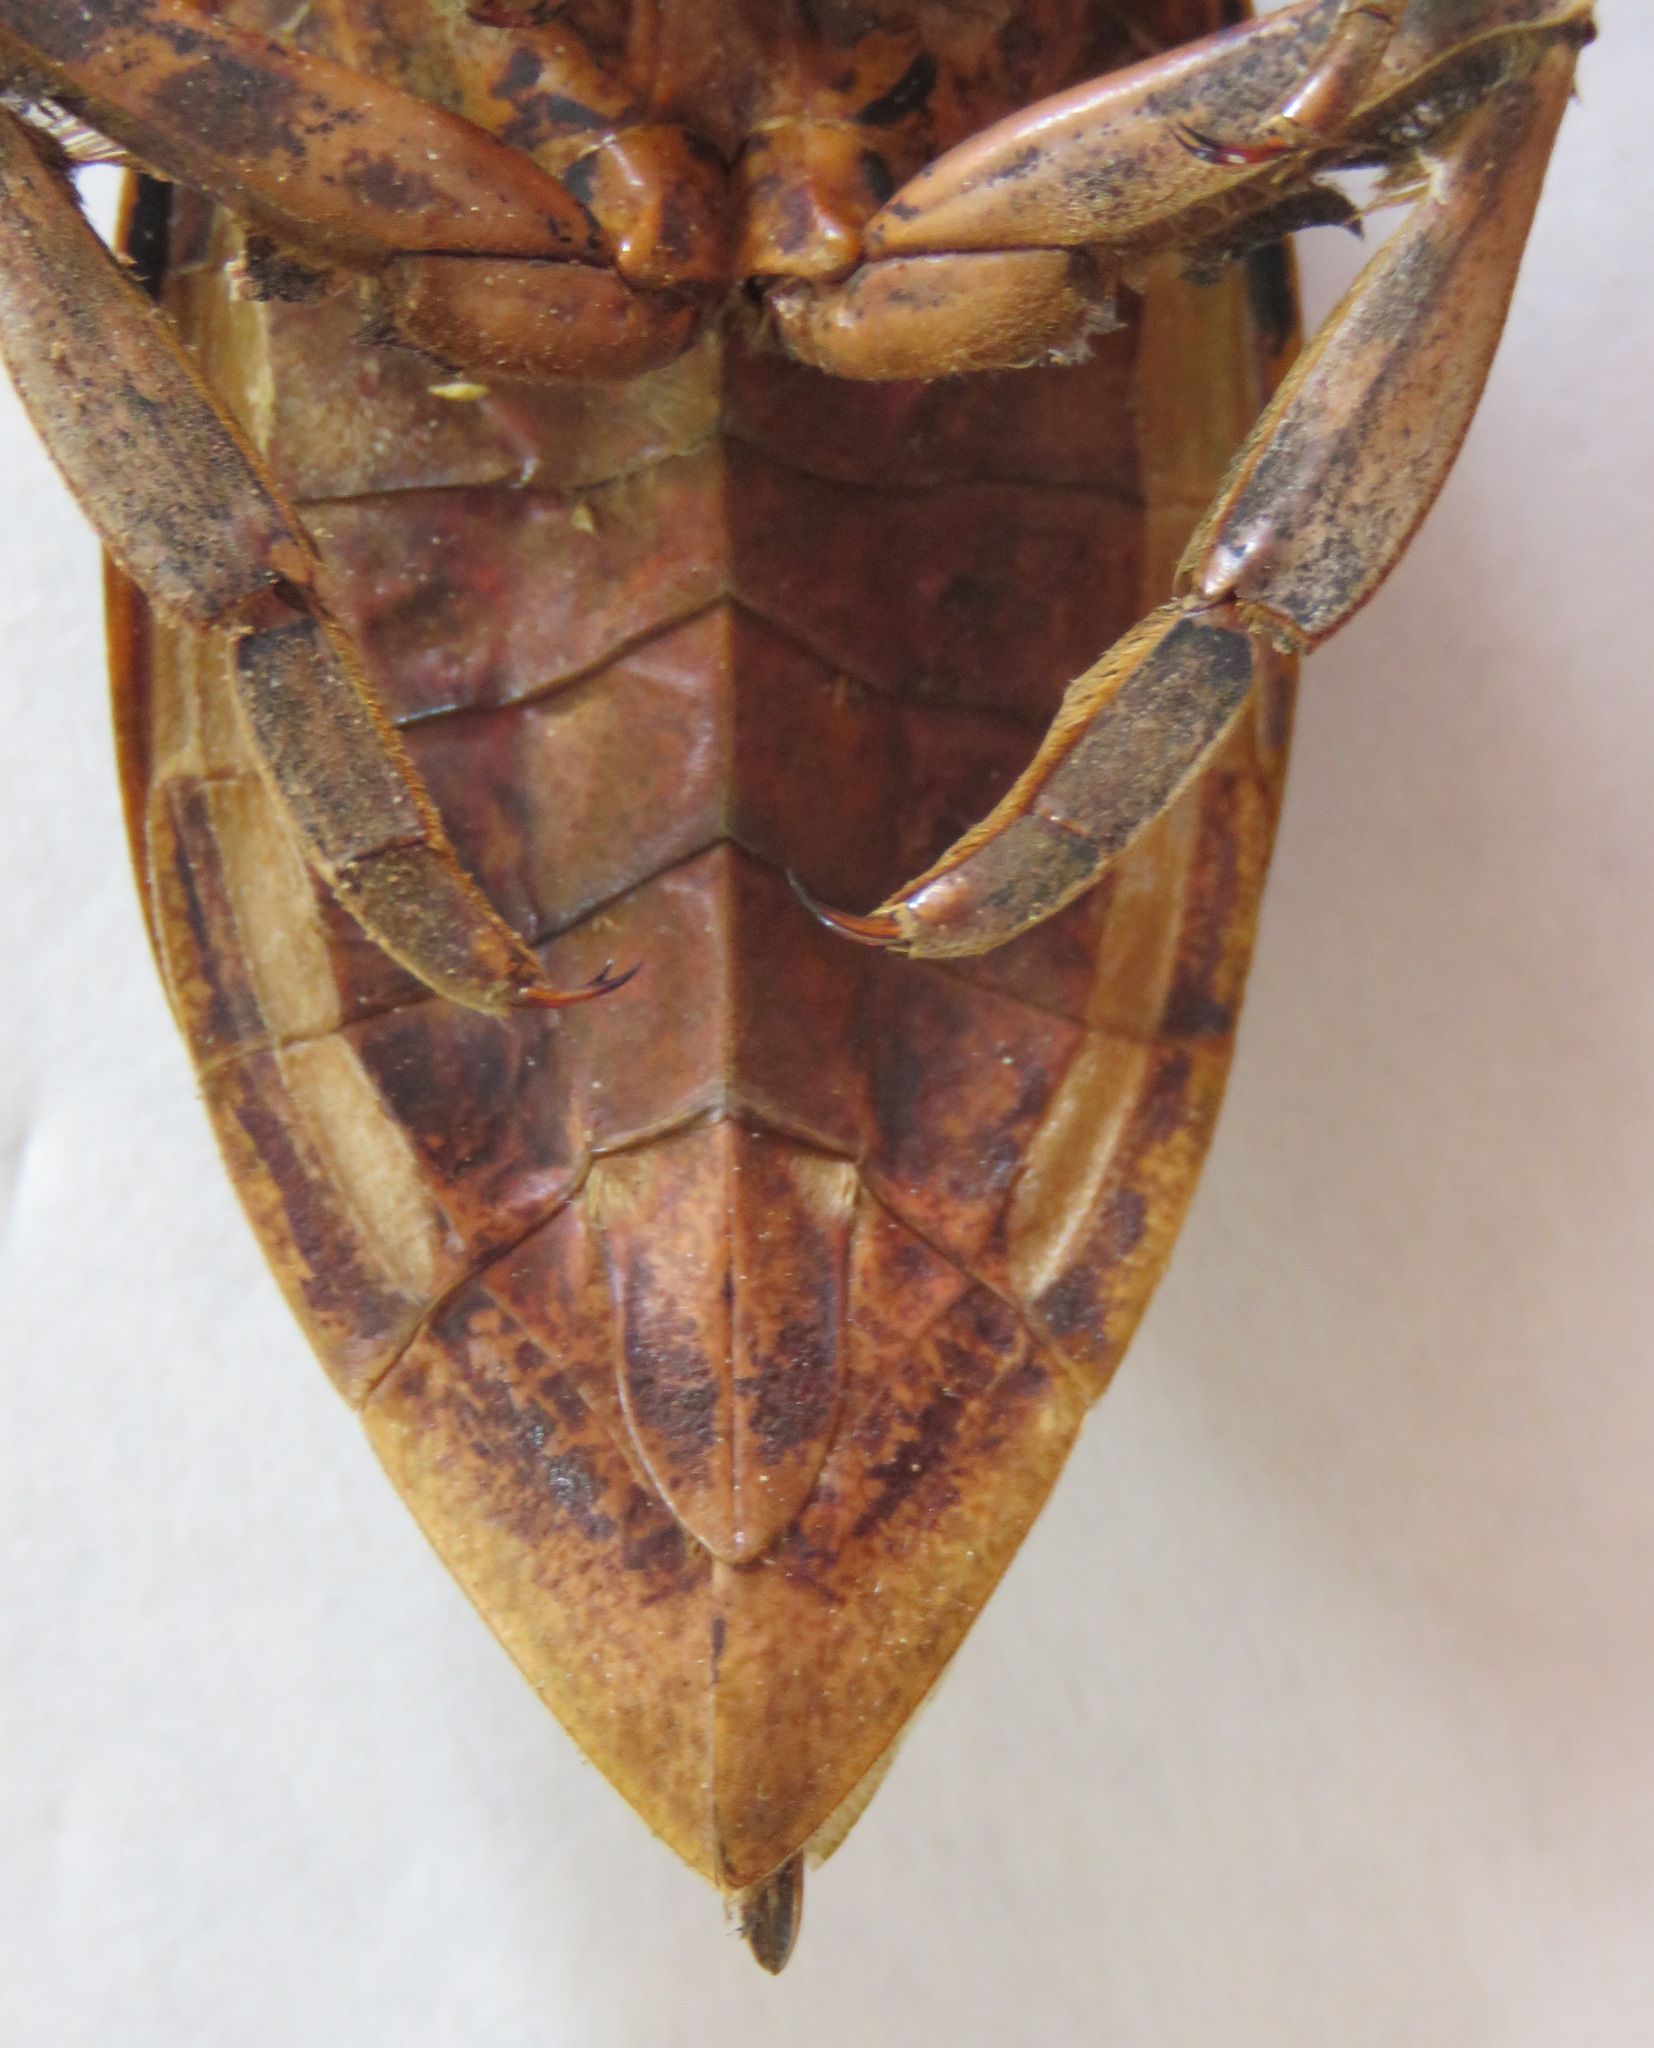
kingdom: Animalia
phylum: Arthropoda
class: Insecta
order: Hemiptera
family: Belostomatidae
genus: Lethocerus
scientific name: Lethocerus
